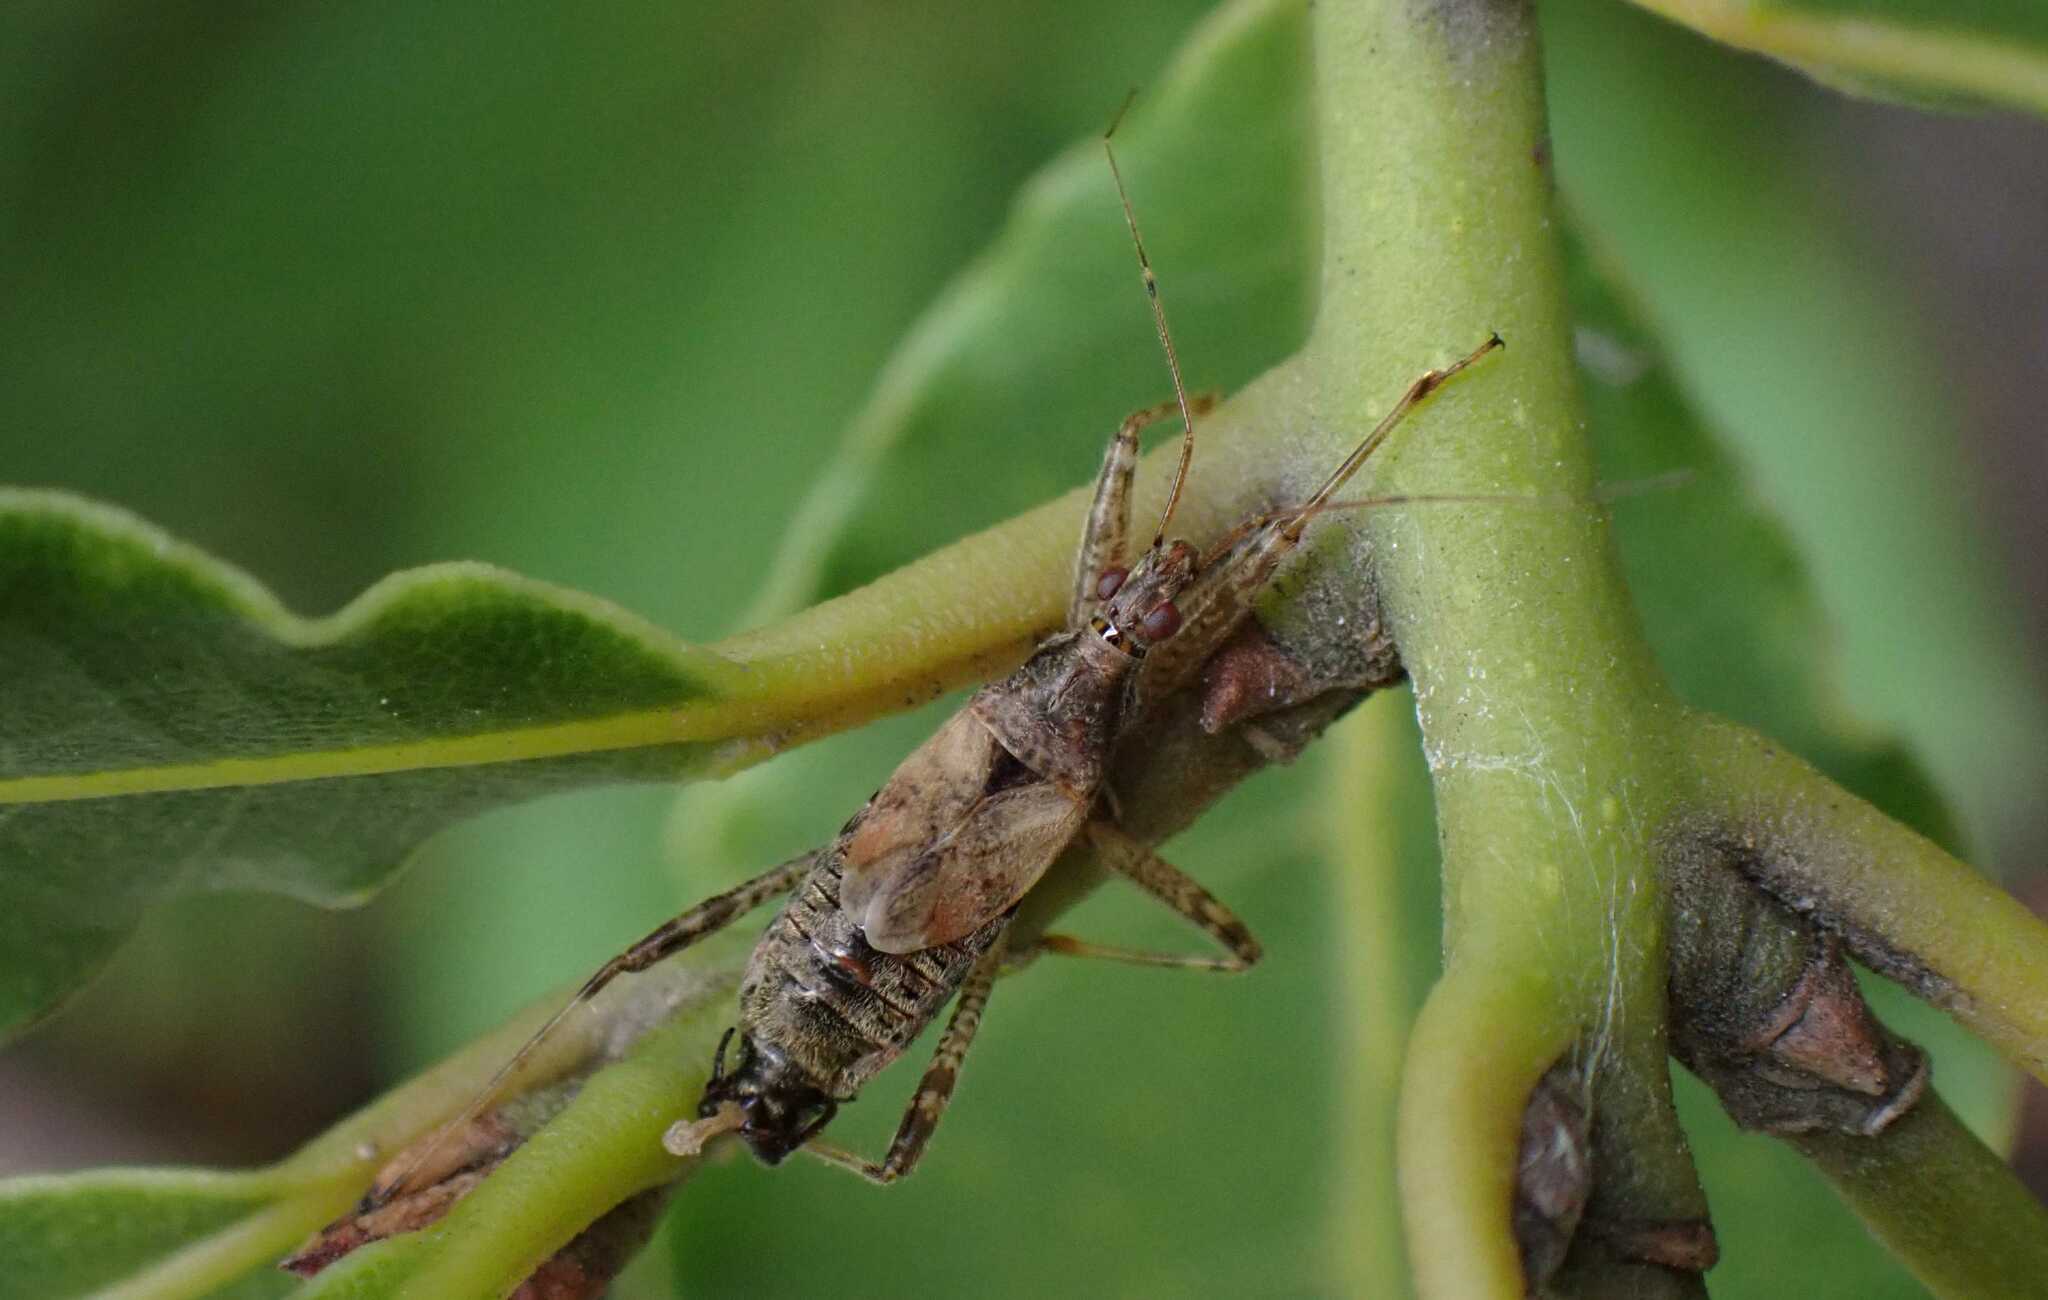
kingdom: Animalia
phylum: Arthropoda
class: Insecta
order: Hemiptera
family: Nabidae
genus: Himacerus
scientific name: Himacerus apterus
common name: Tree damsel bug
